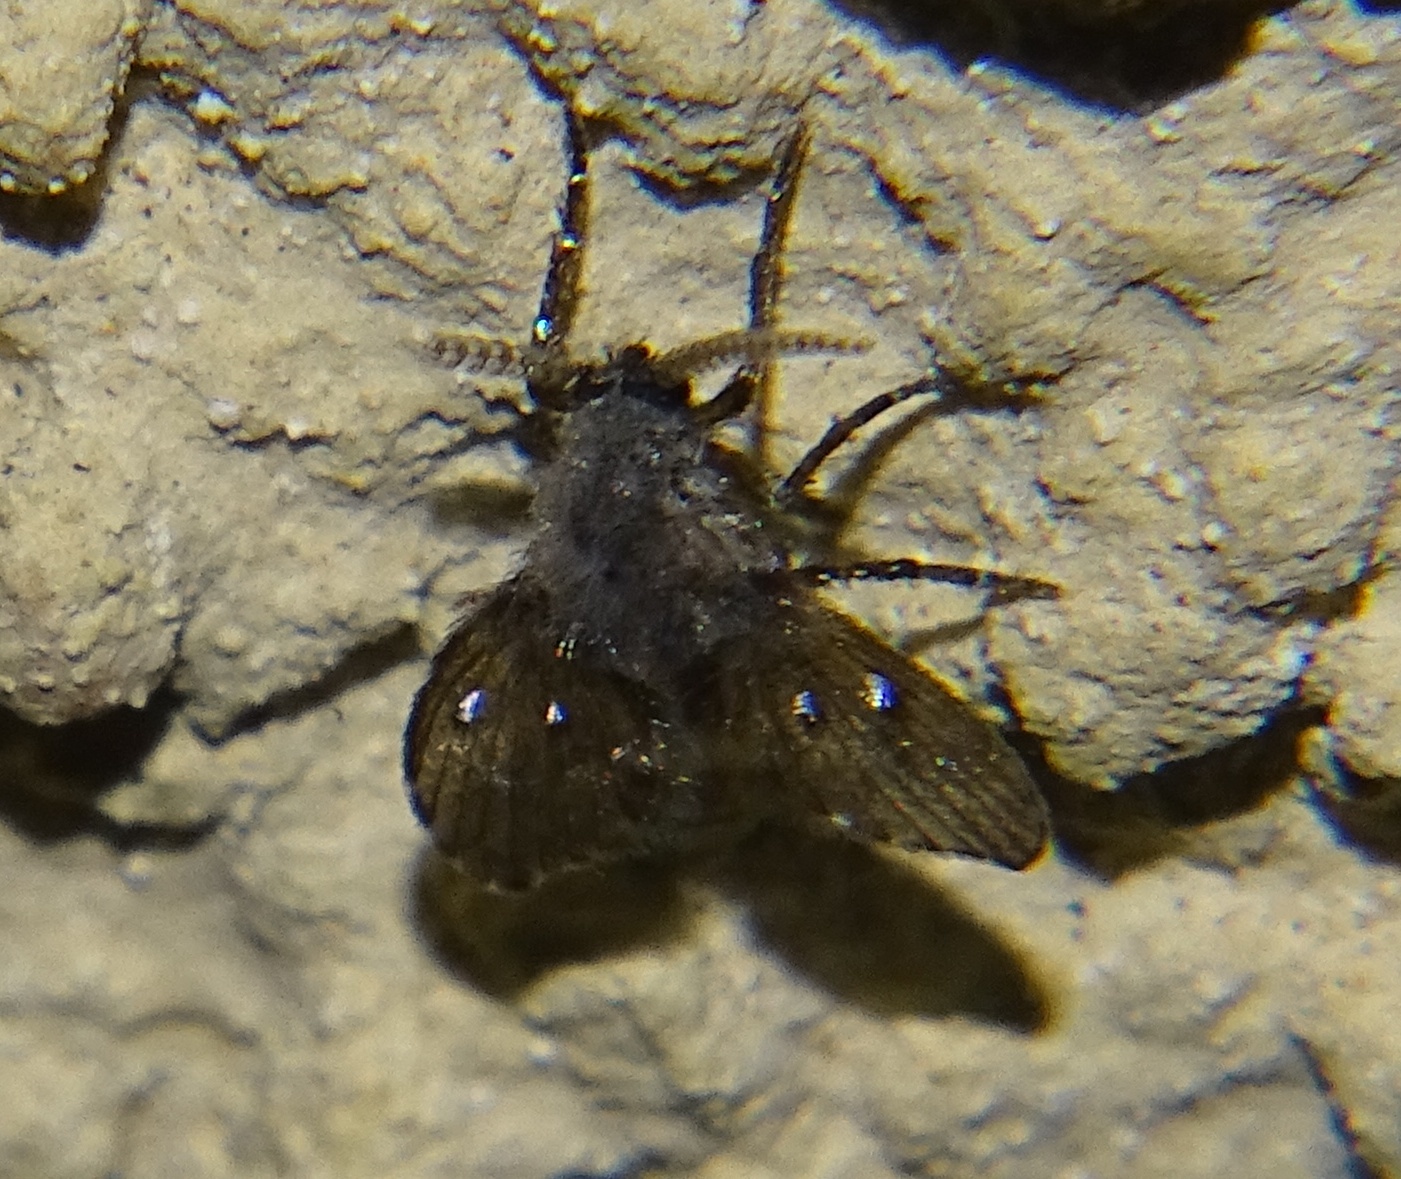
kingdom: Animalia
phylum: Arthropoda
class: Insecta
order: Diptera
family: Psychodidae
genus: Clogmia
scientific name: Clogmia albipunctatus
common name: White-spotted moth fly
